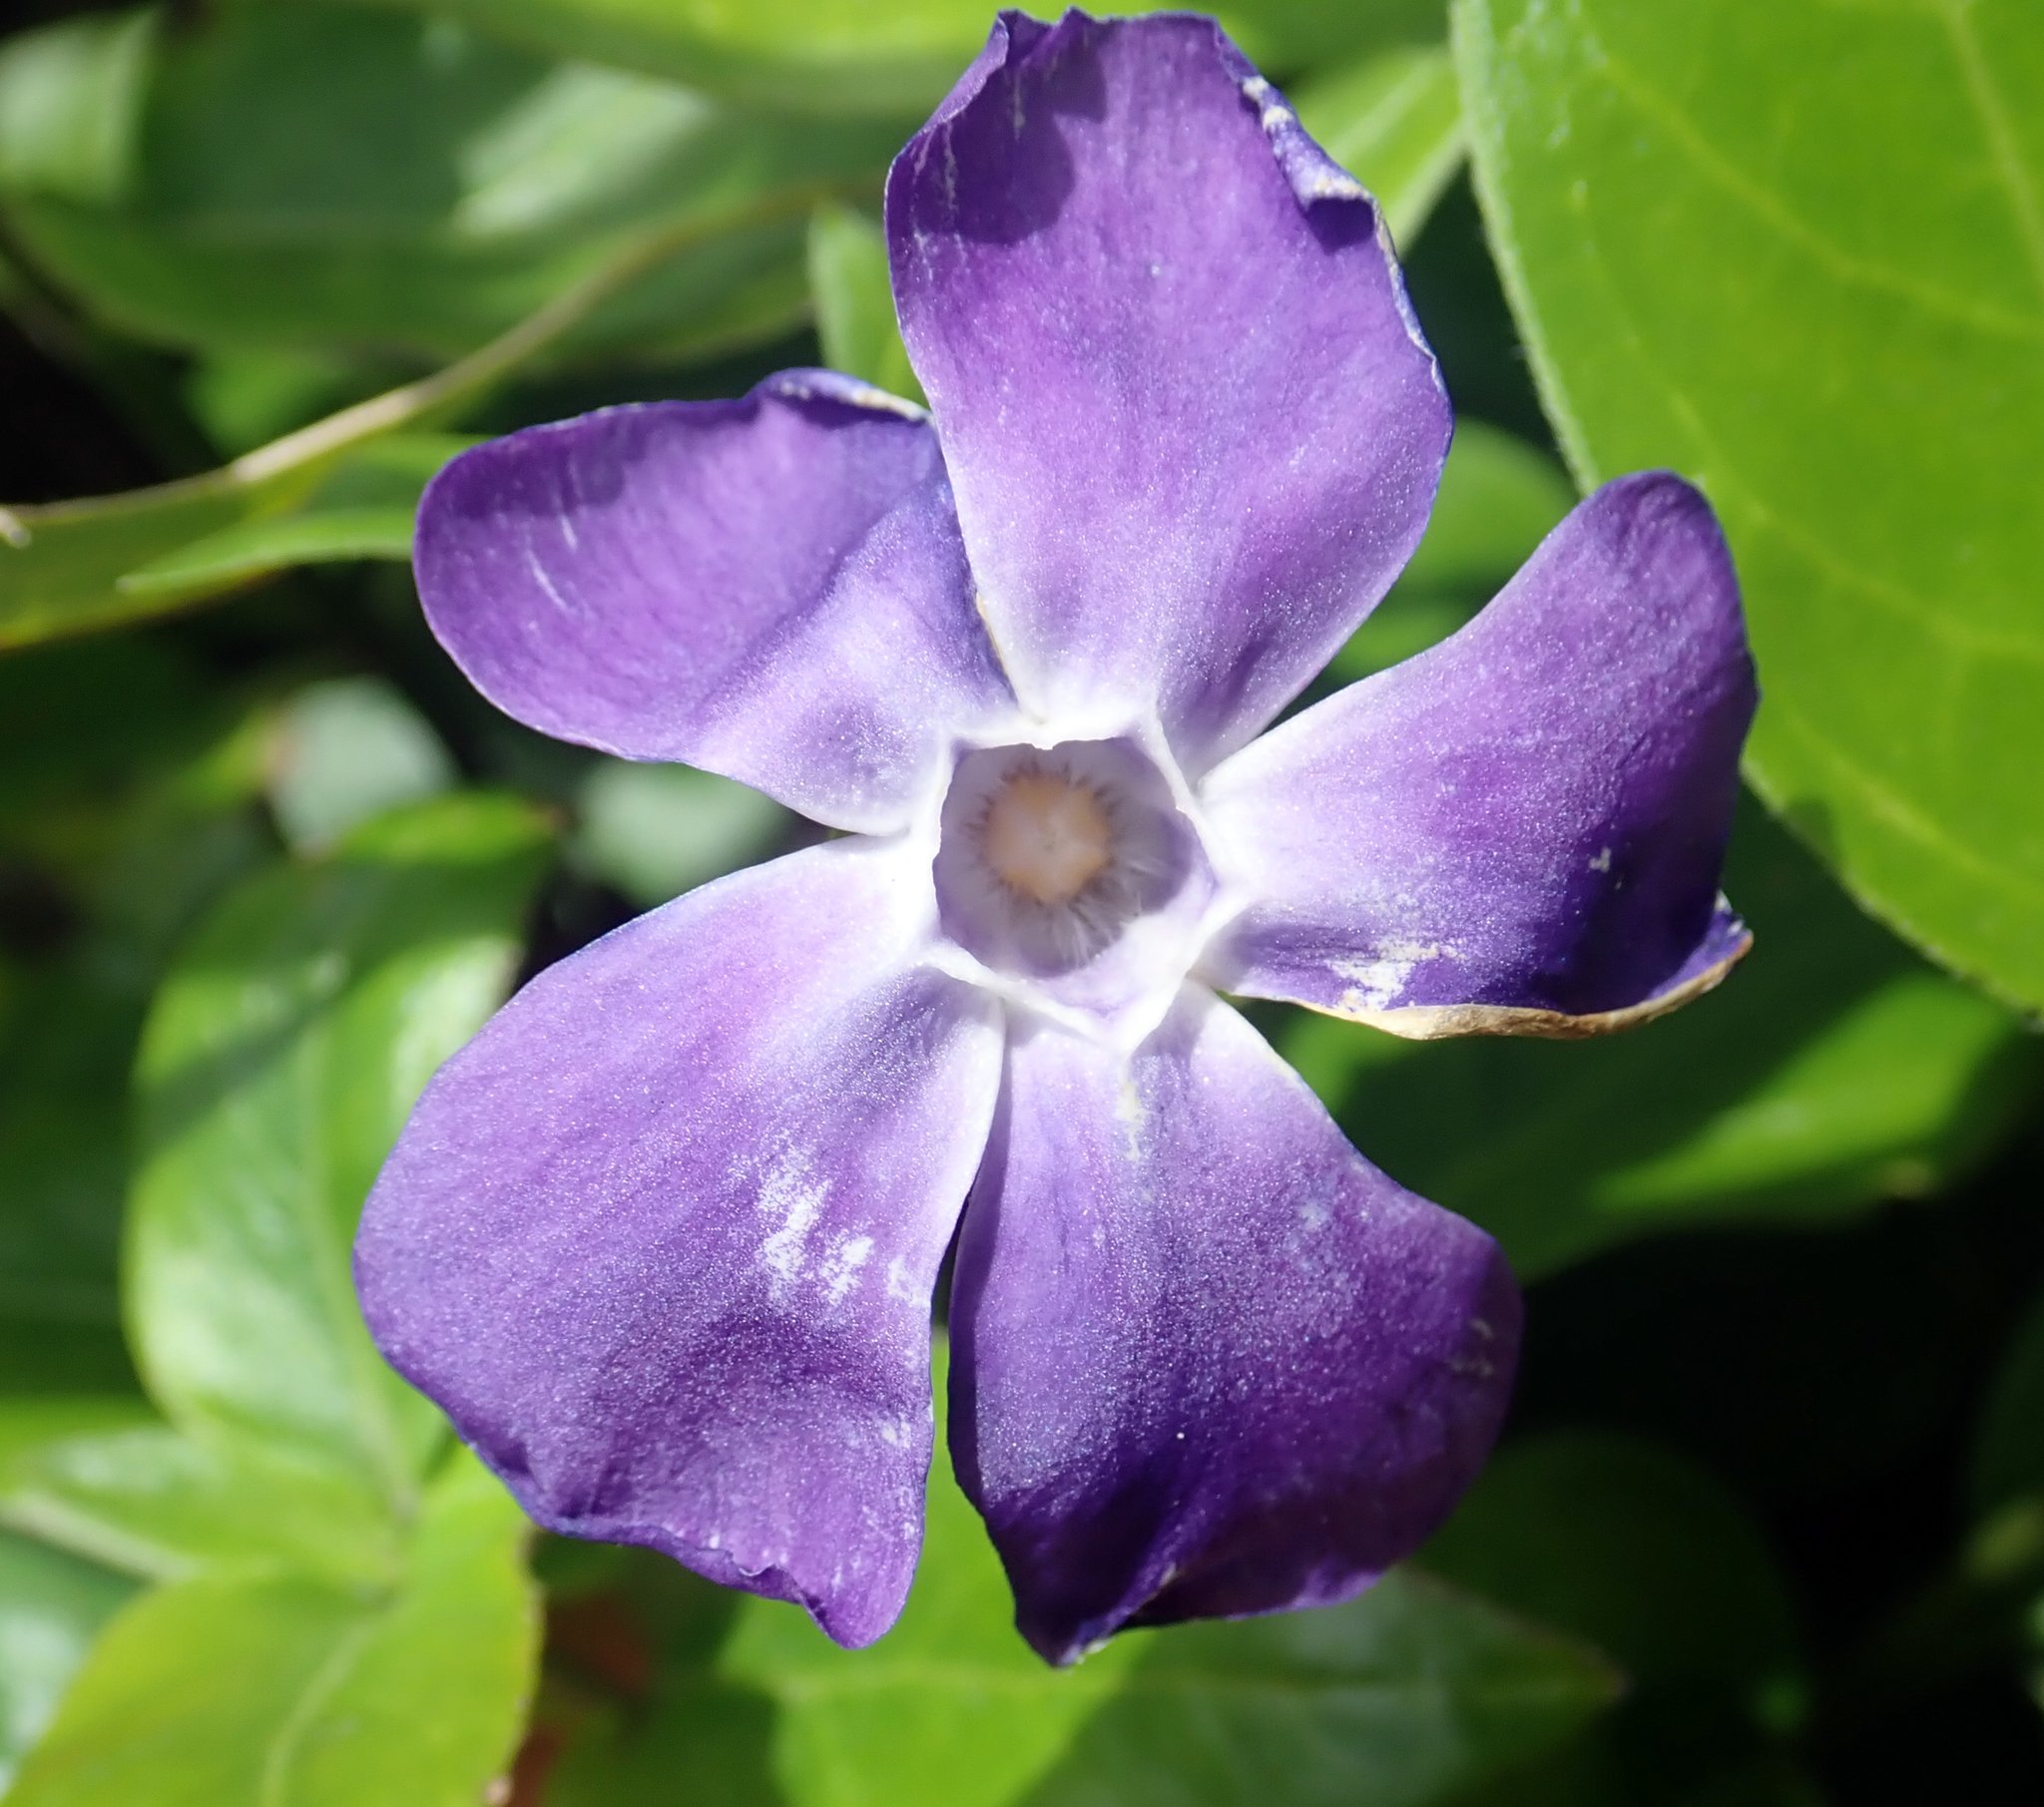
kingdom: Plantae
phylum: Tracheophyta
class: Magnoliopsida
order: Gentianales
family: Apocynaceae
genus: Vinca
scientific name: Vinca major
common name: Greater periwinkle
